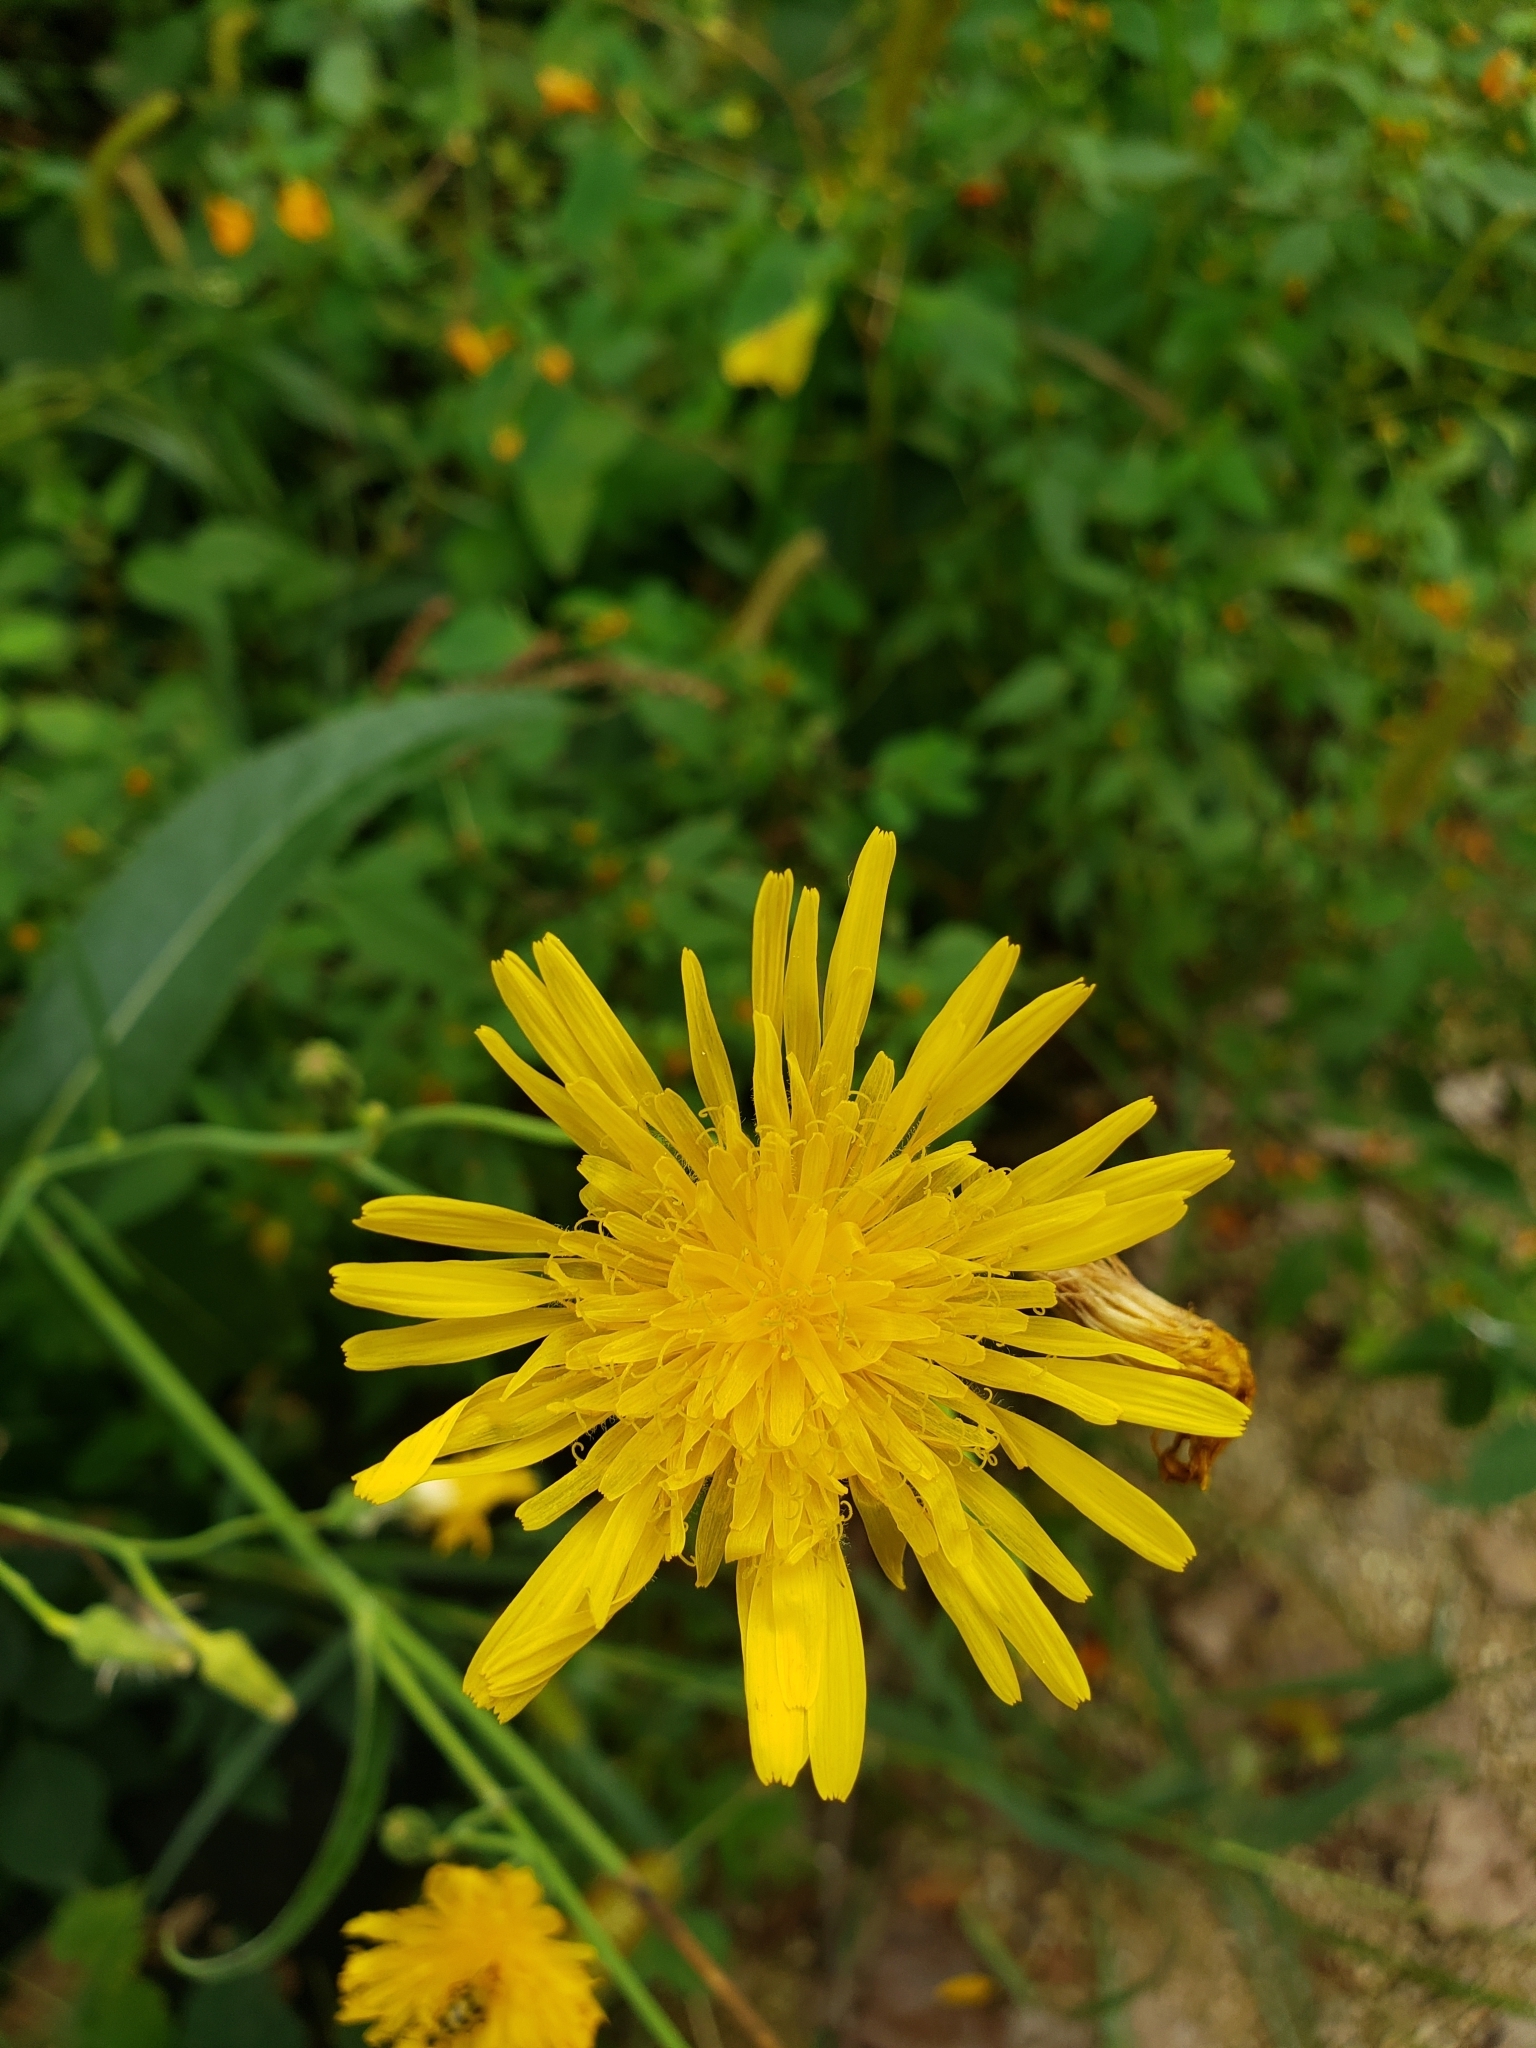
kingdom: Plantae
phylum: Tracheophyta
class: Magnoliopsida
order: Asterales
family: Asteraceae
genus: Sonchus
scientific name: Sonchus arvensis
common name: Perennial sow-thistle
